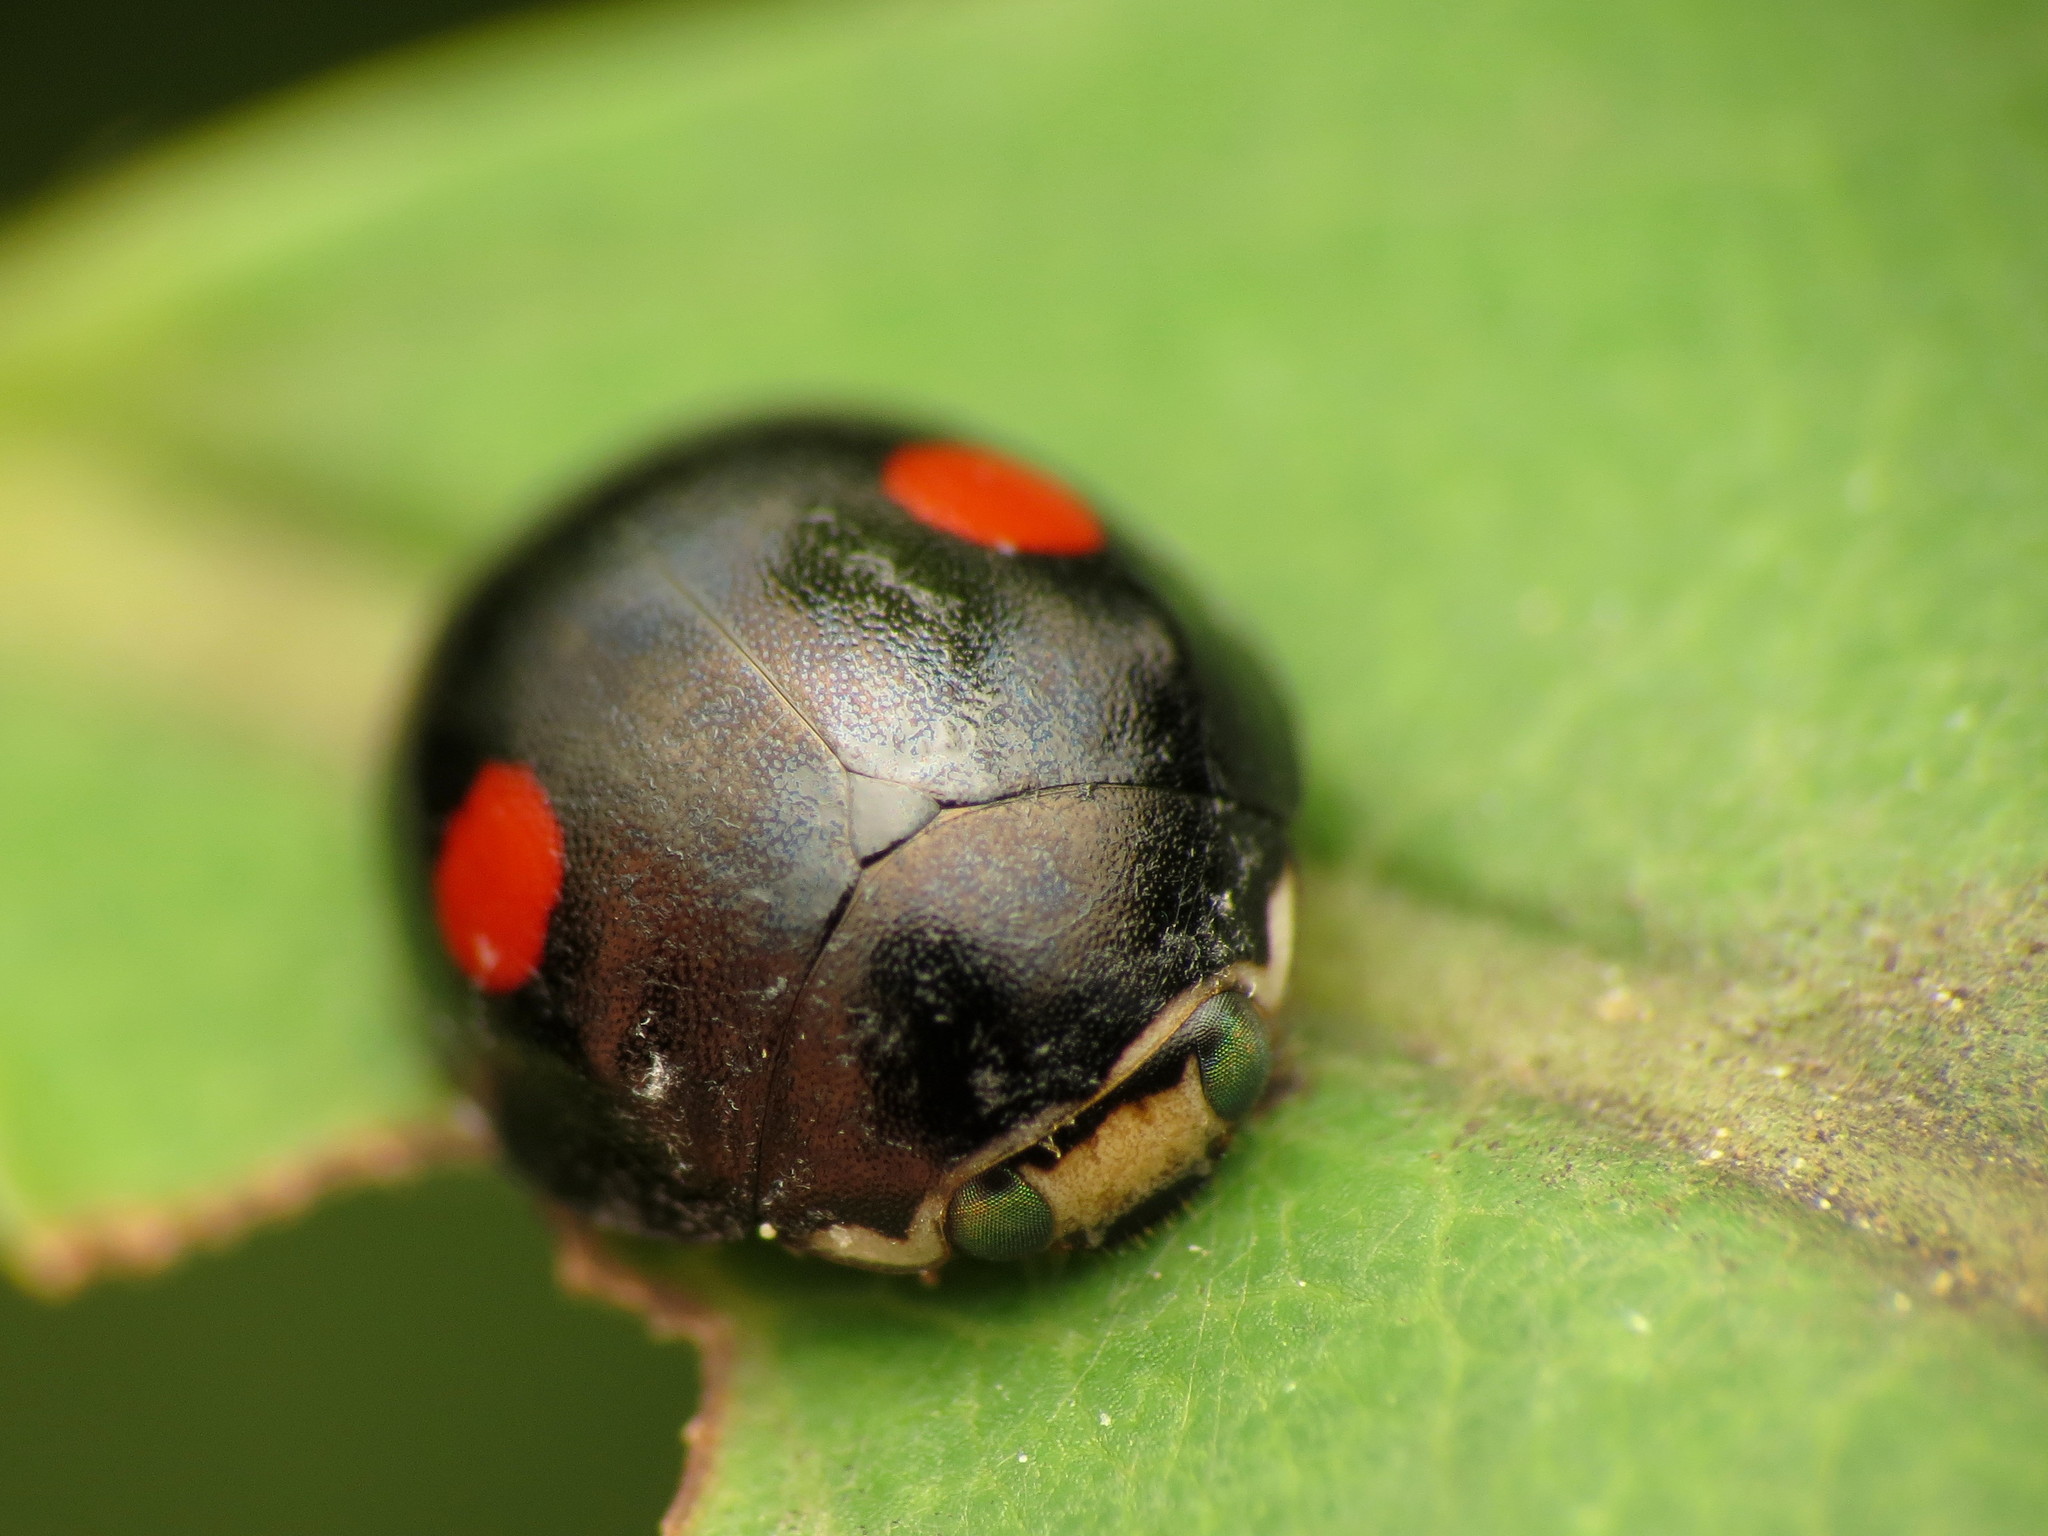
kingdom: Animalia
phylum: Arthropoda
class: Insecta
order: Coleoptera
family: Coccinellidae
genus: Hyperaspis
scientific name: Hyperaspis
